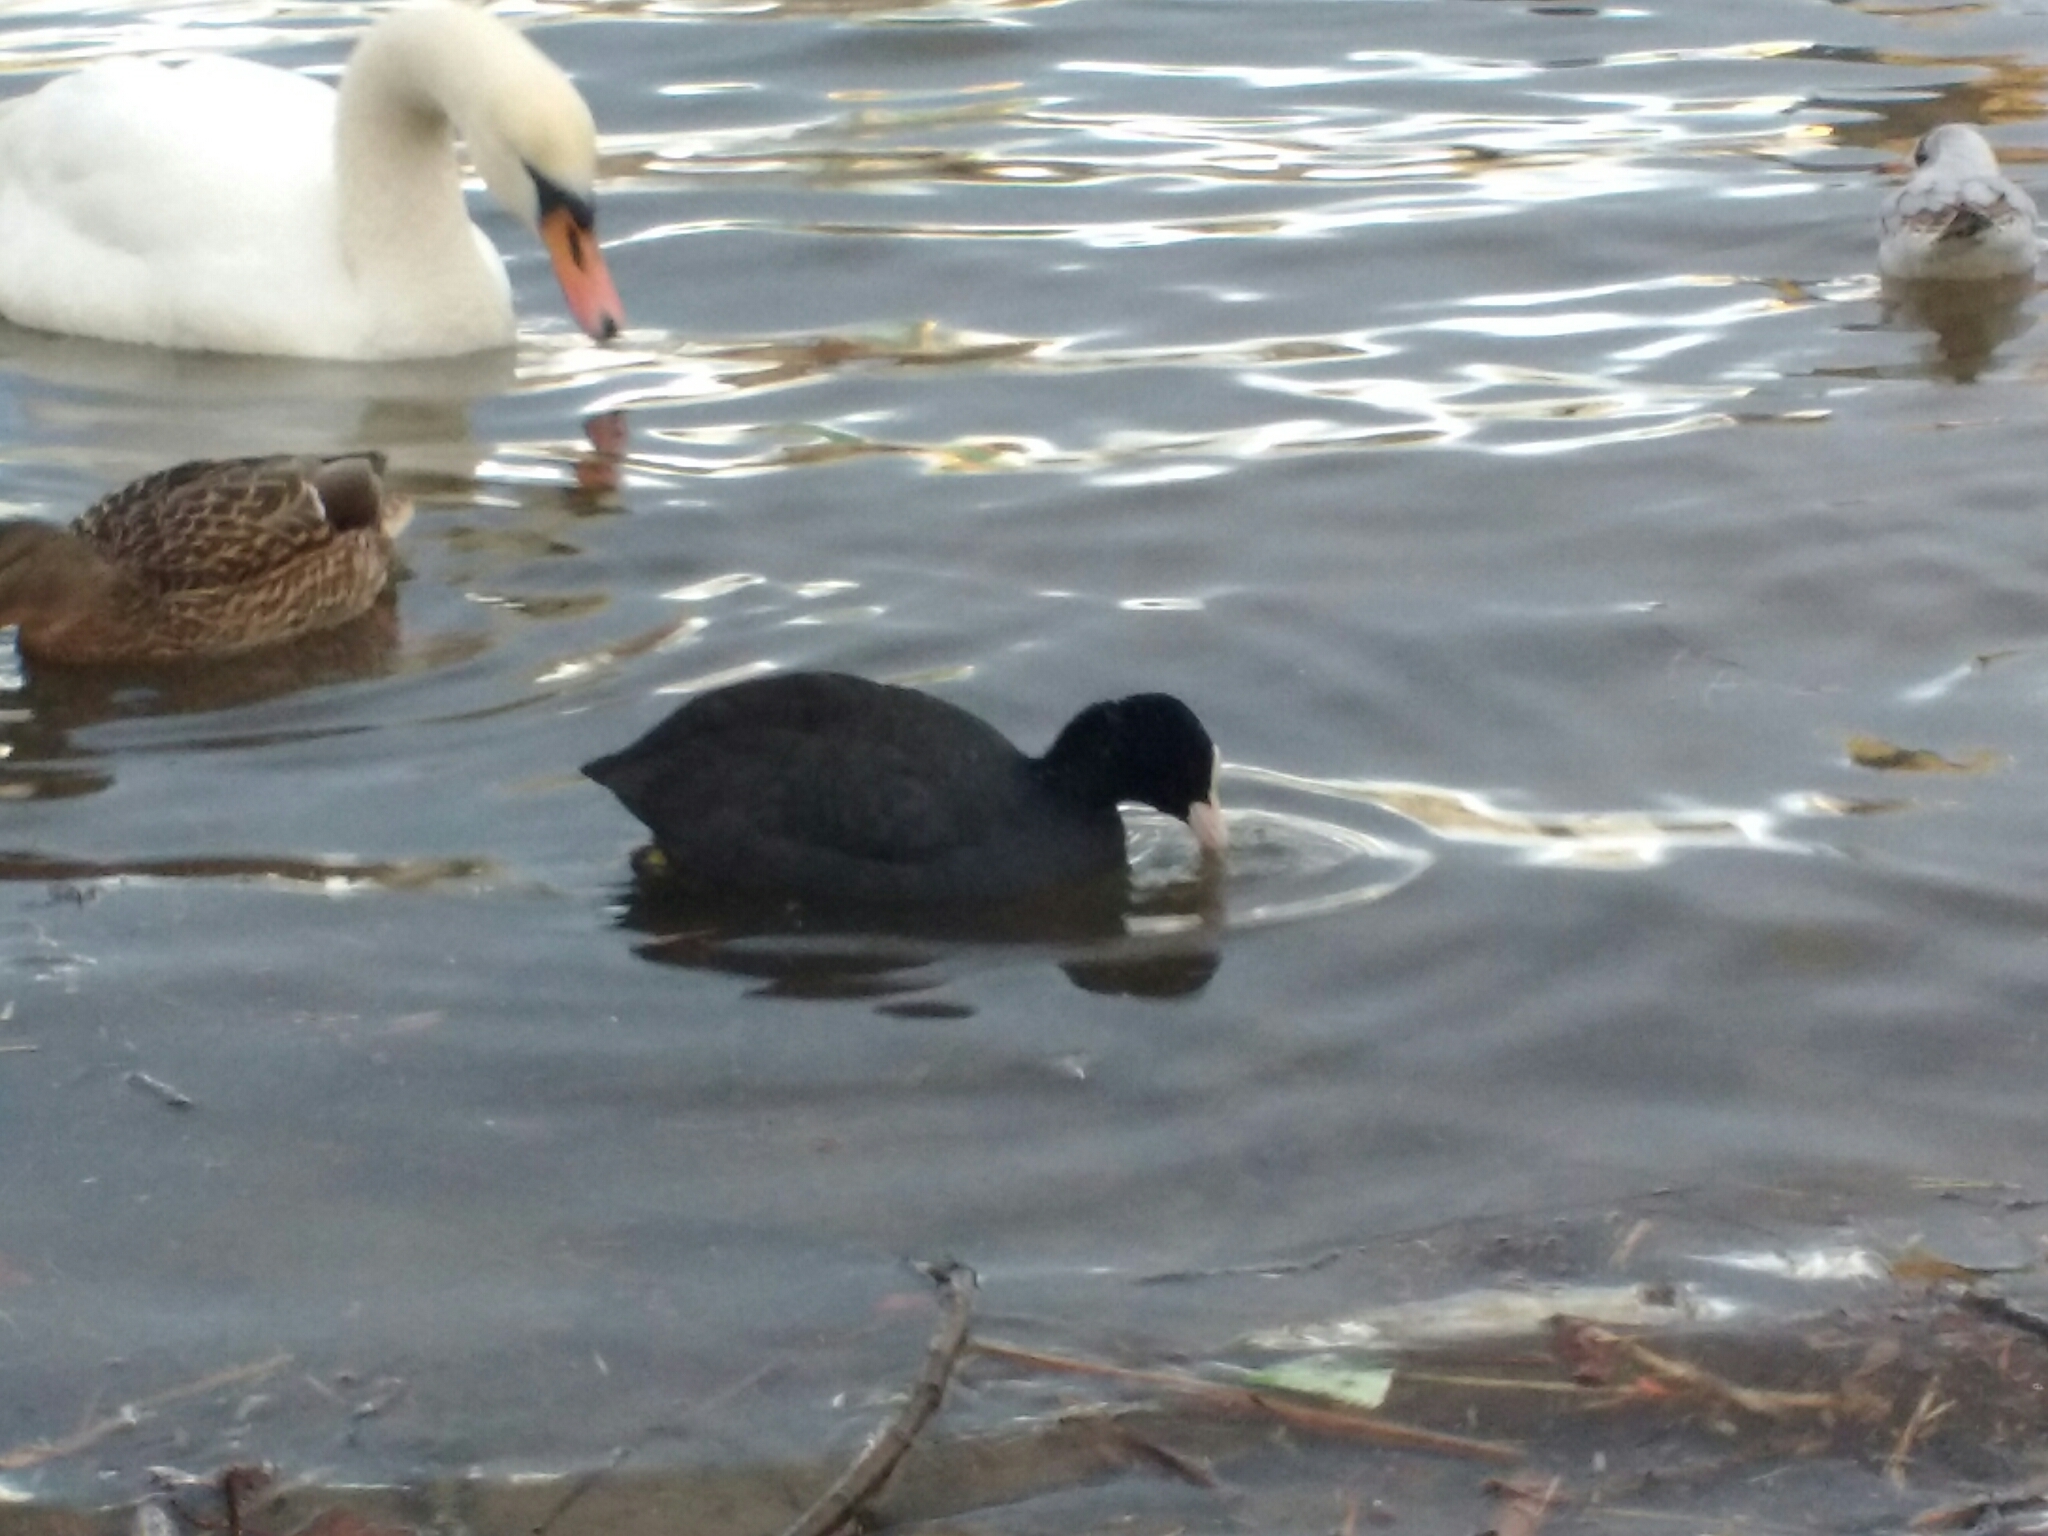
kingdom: Animalia
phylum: Chordata
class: Aves
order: Gruiformes
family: Rallidae
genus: Fulica
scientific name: Fulica atra
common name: Eurasian coot
